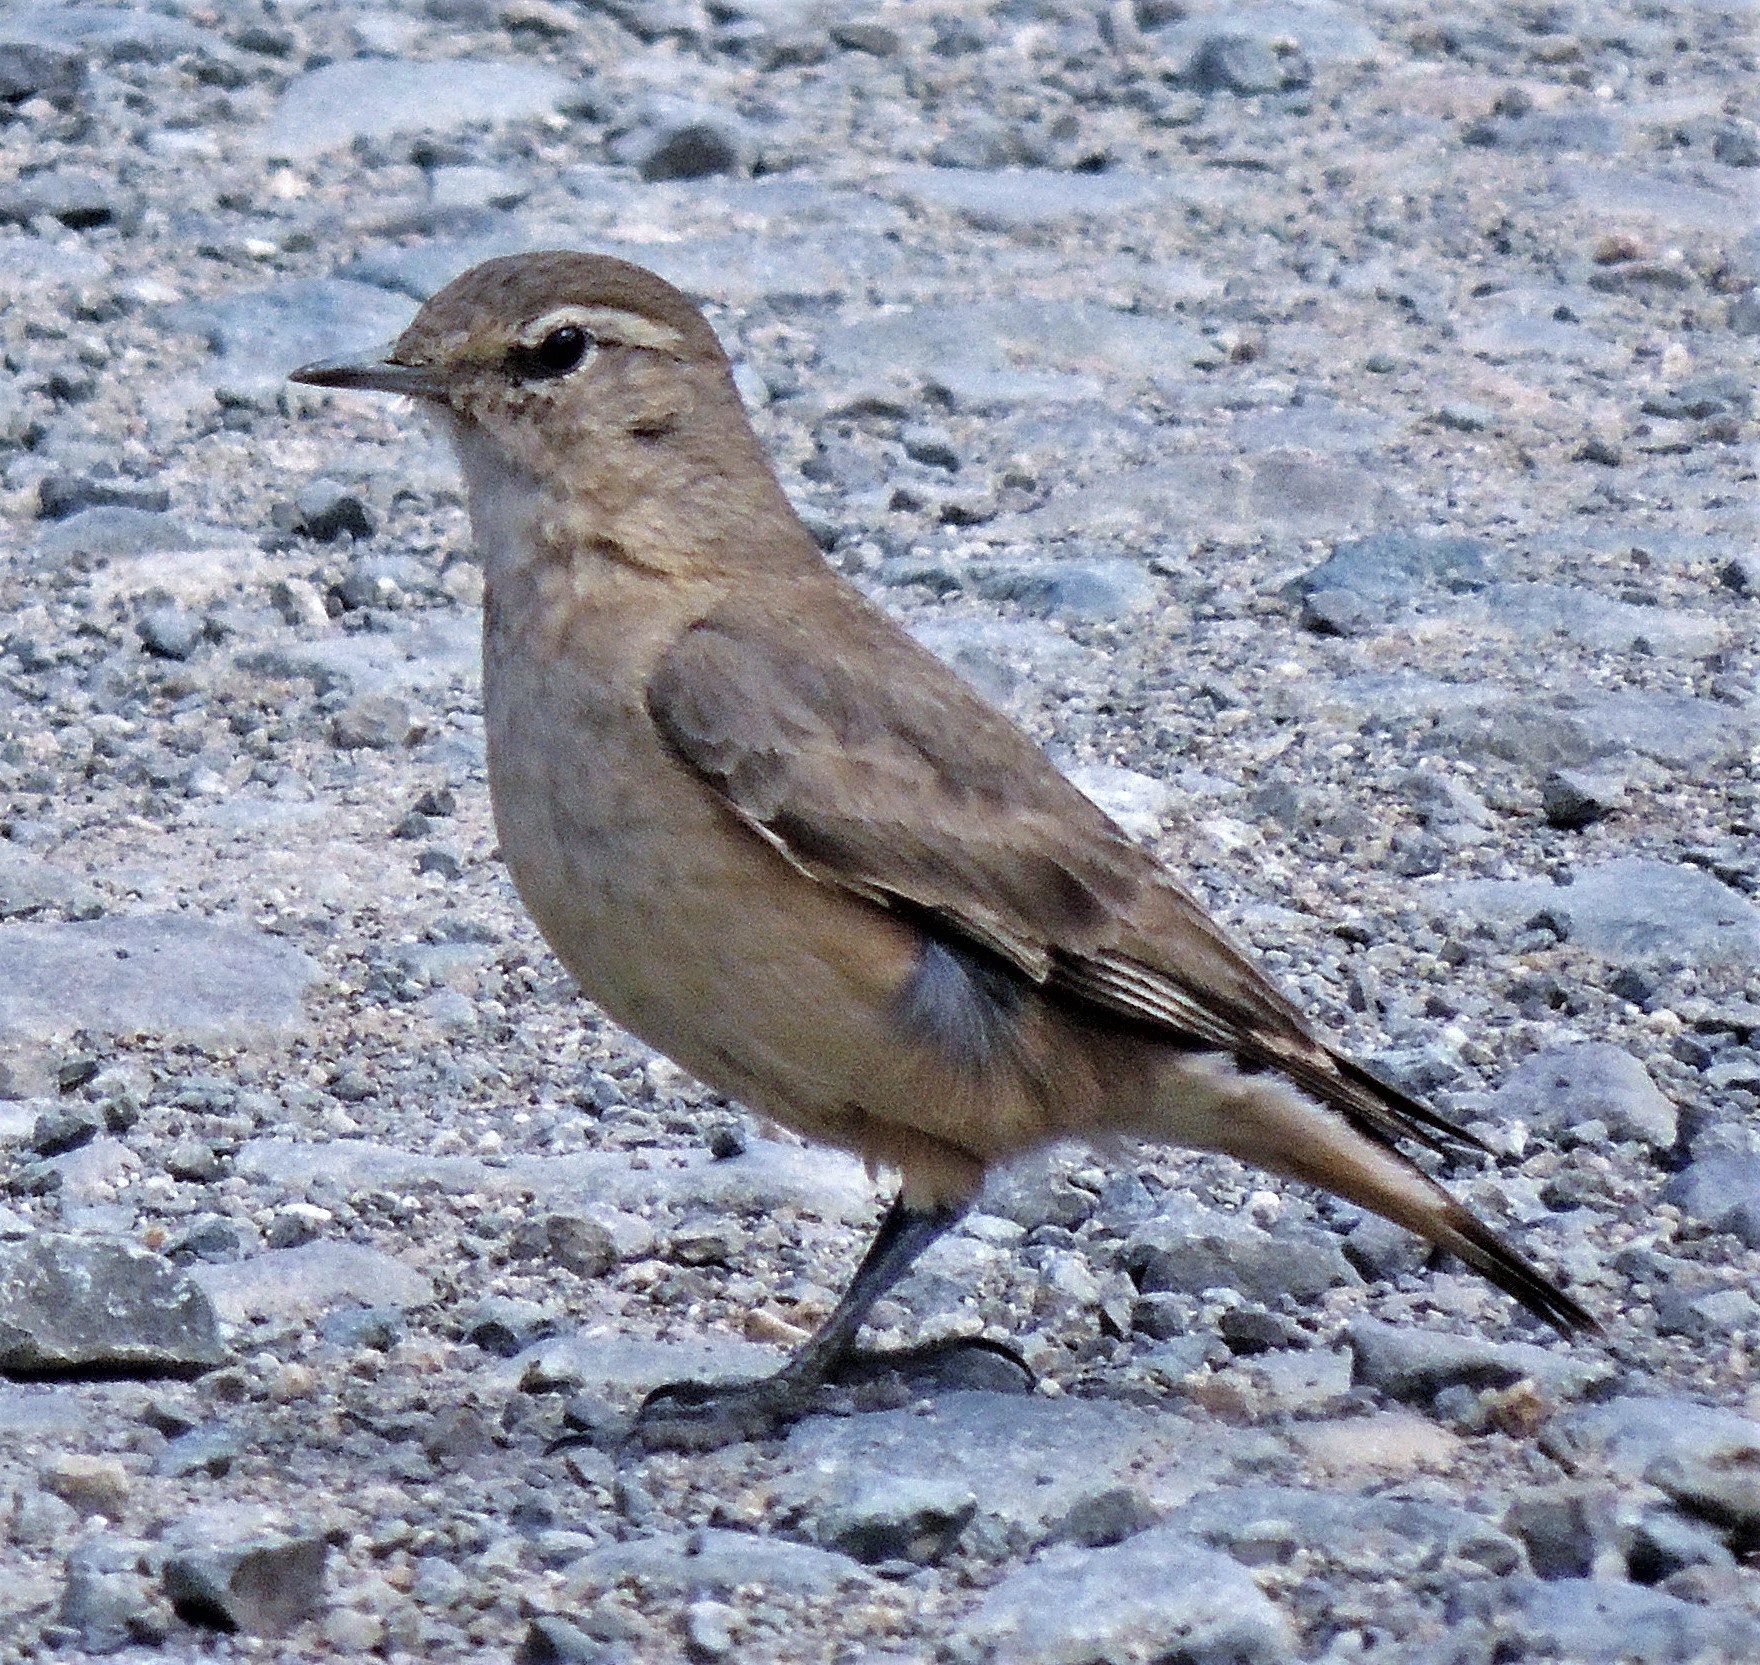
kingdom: Animalia
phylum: Chordata
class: Aves
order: Passeriformes
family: Furnariidae
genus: Geositta
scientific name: Geositta rufipennis
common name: Rufous-banded miner
